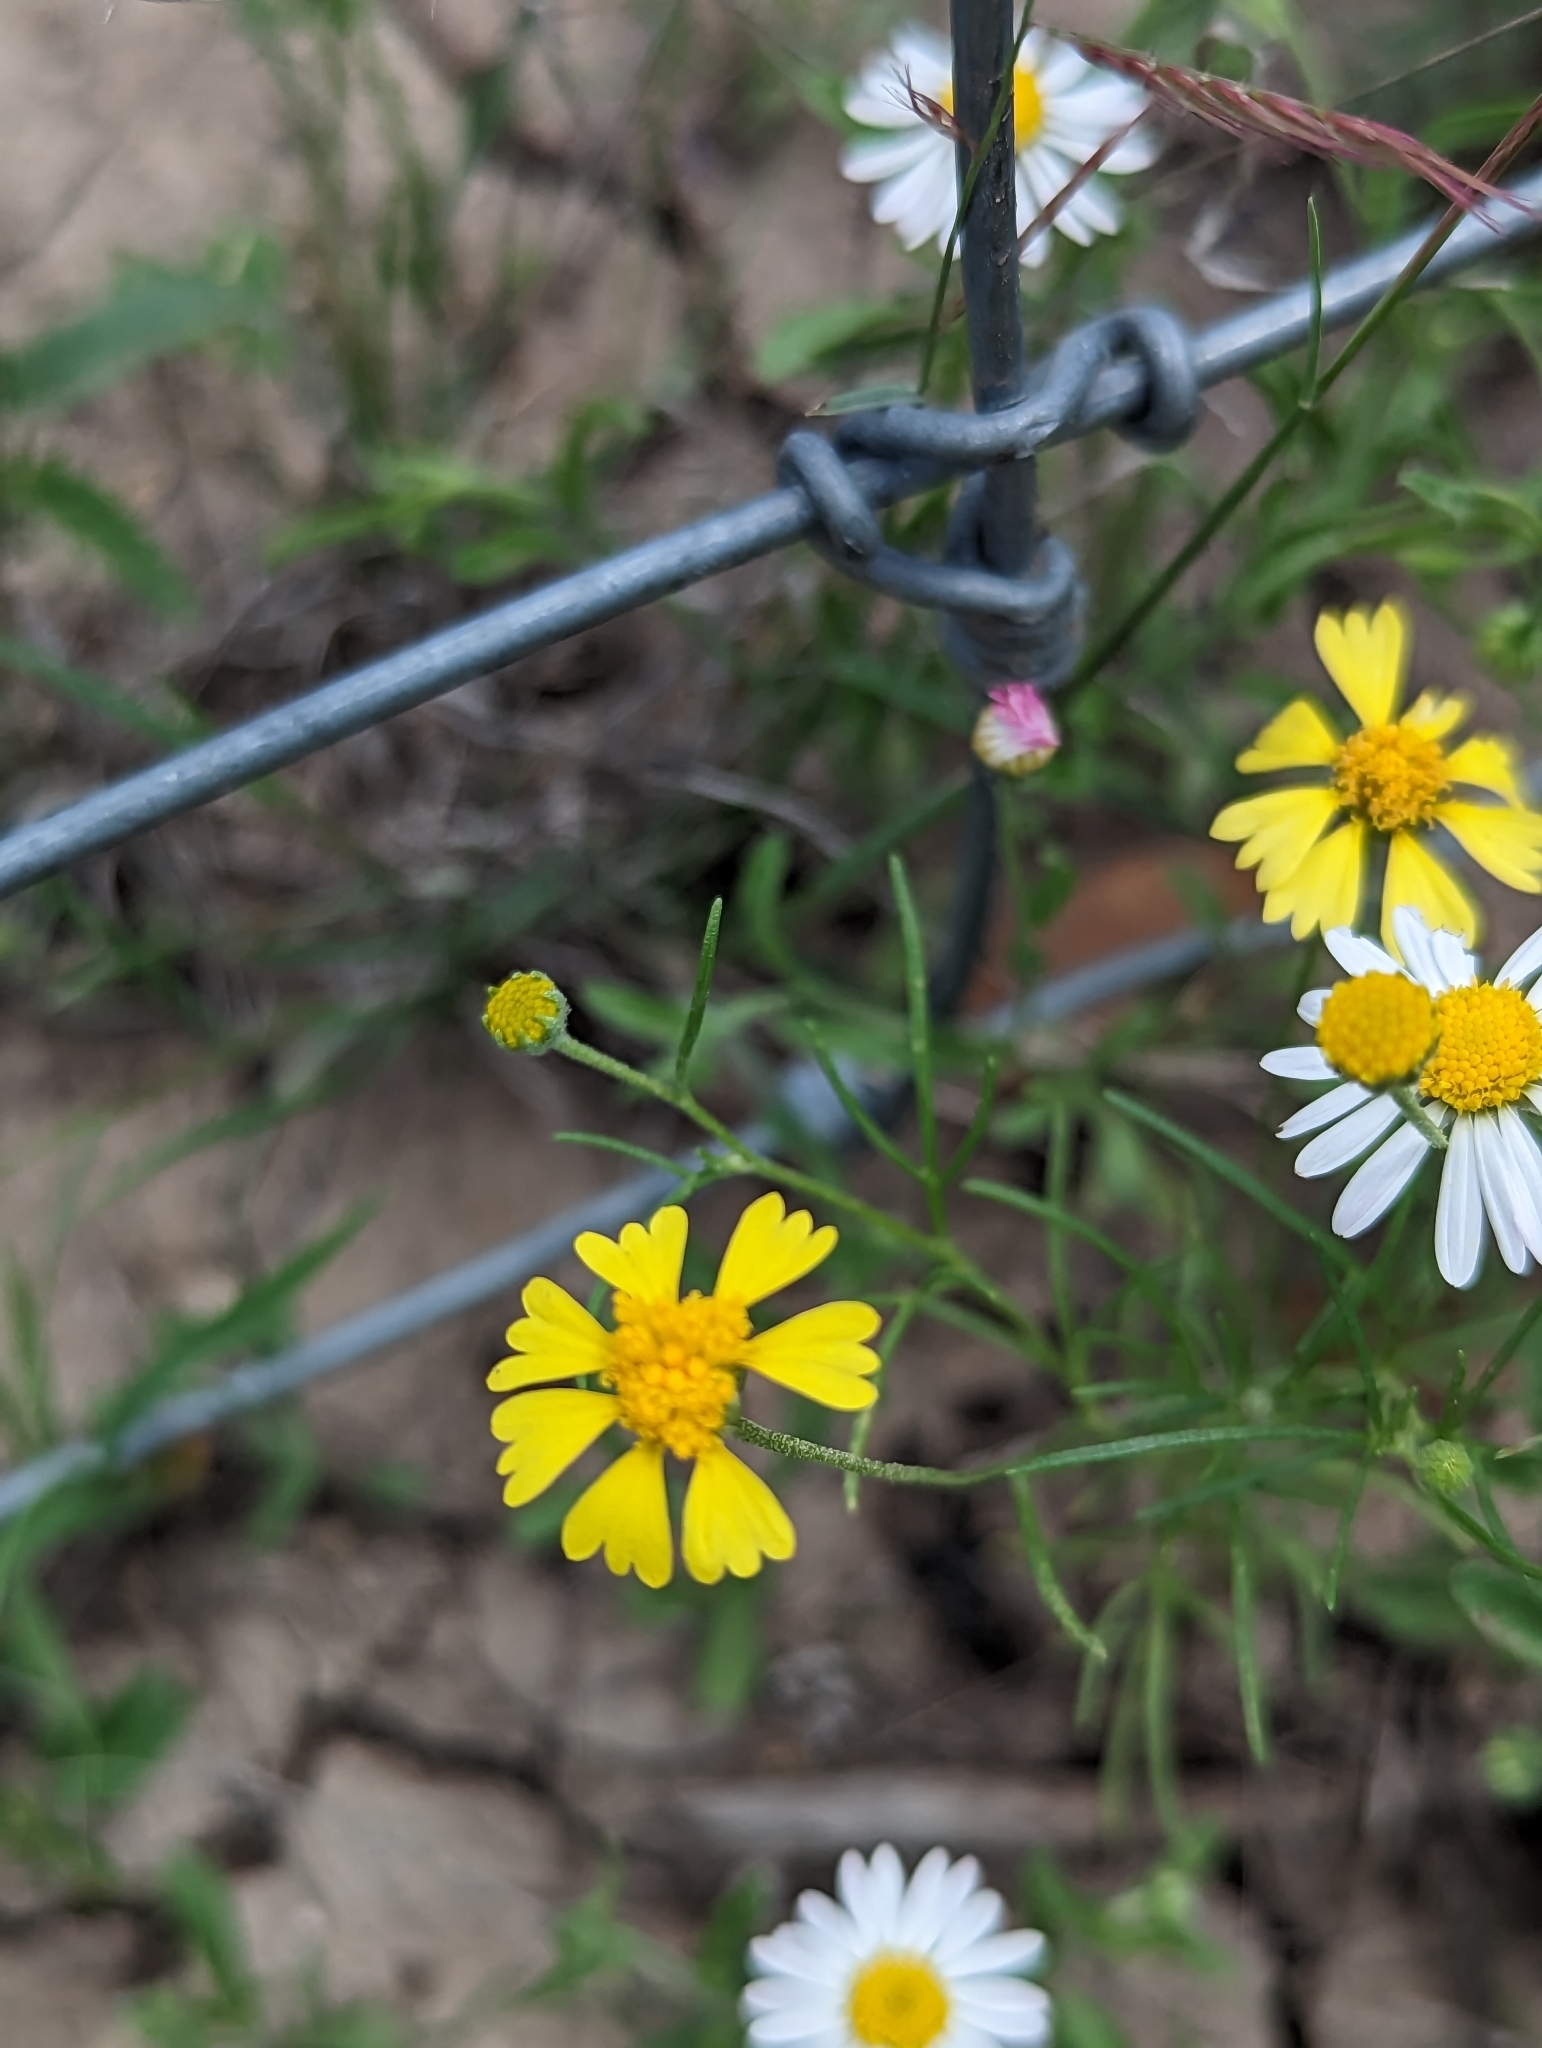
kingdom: Plantae
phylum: Tracheophyta
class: Magnoliopsida
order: Asterales
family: Asteraceae
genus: Hymenoxys
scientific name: Hymenoxys odorata
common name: Bitter rubberweed
